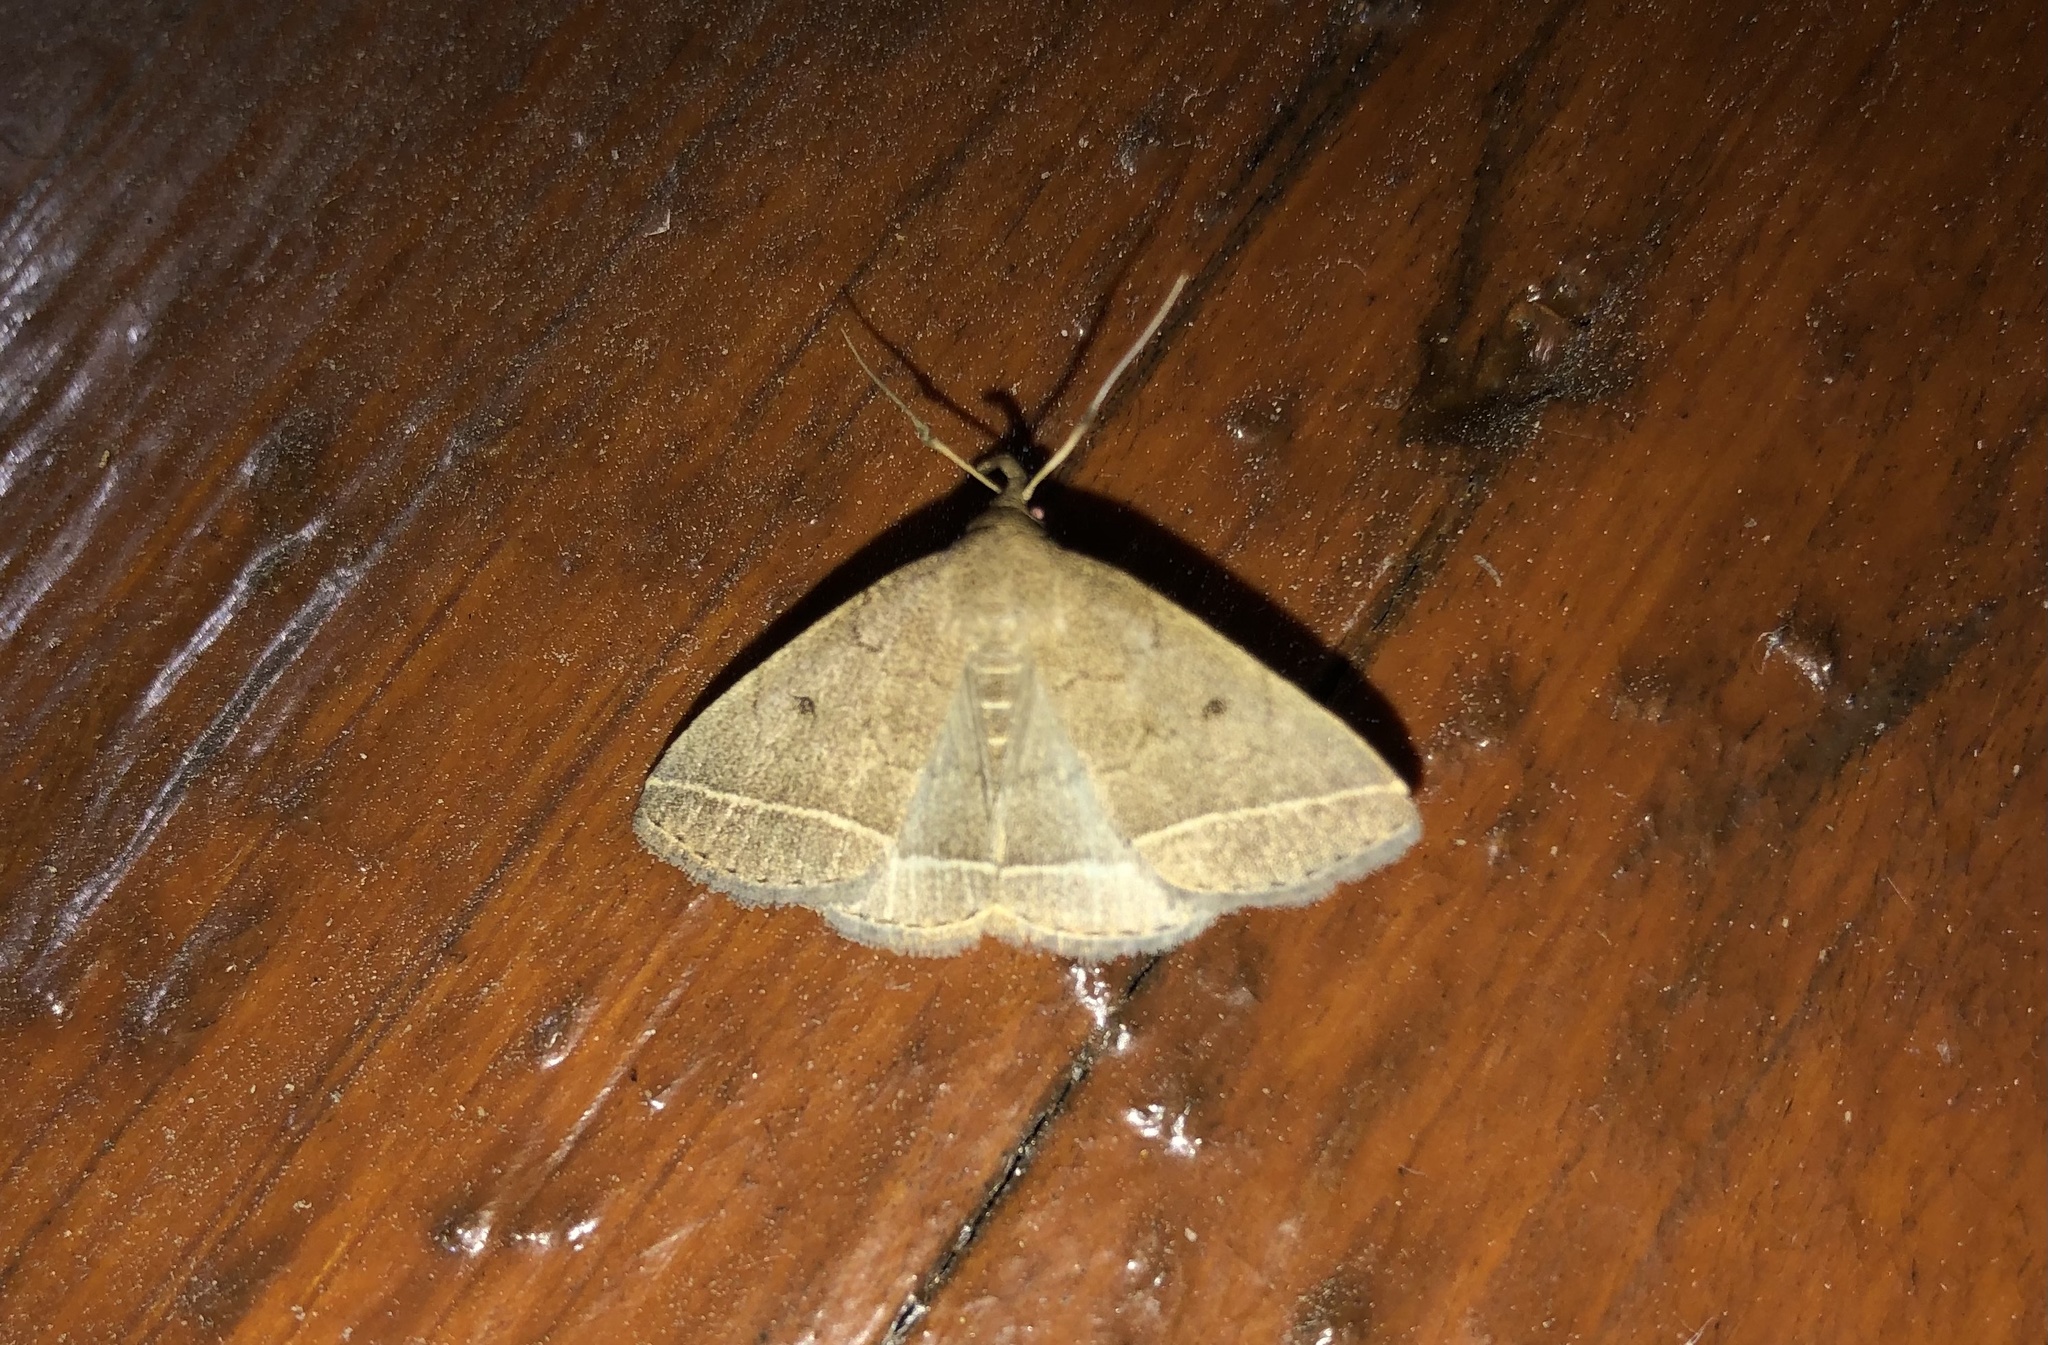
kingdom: Animalia
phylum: Arthropoda
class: Insecta
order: Lepidoptera
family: Erebidae
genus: Zanclognatha
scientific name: Zanclognatha marcidilinea
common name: Yellowish fan-foot
